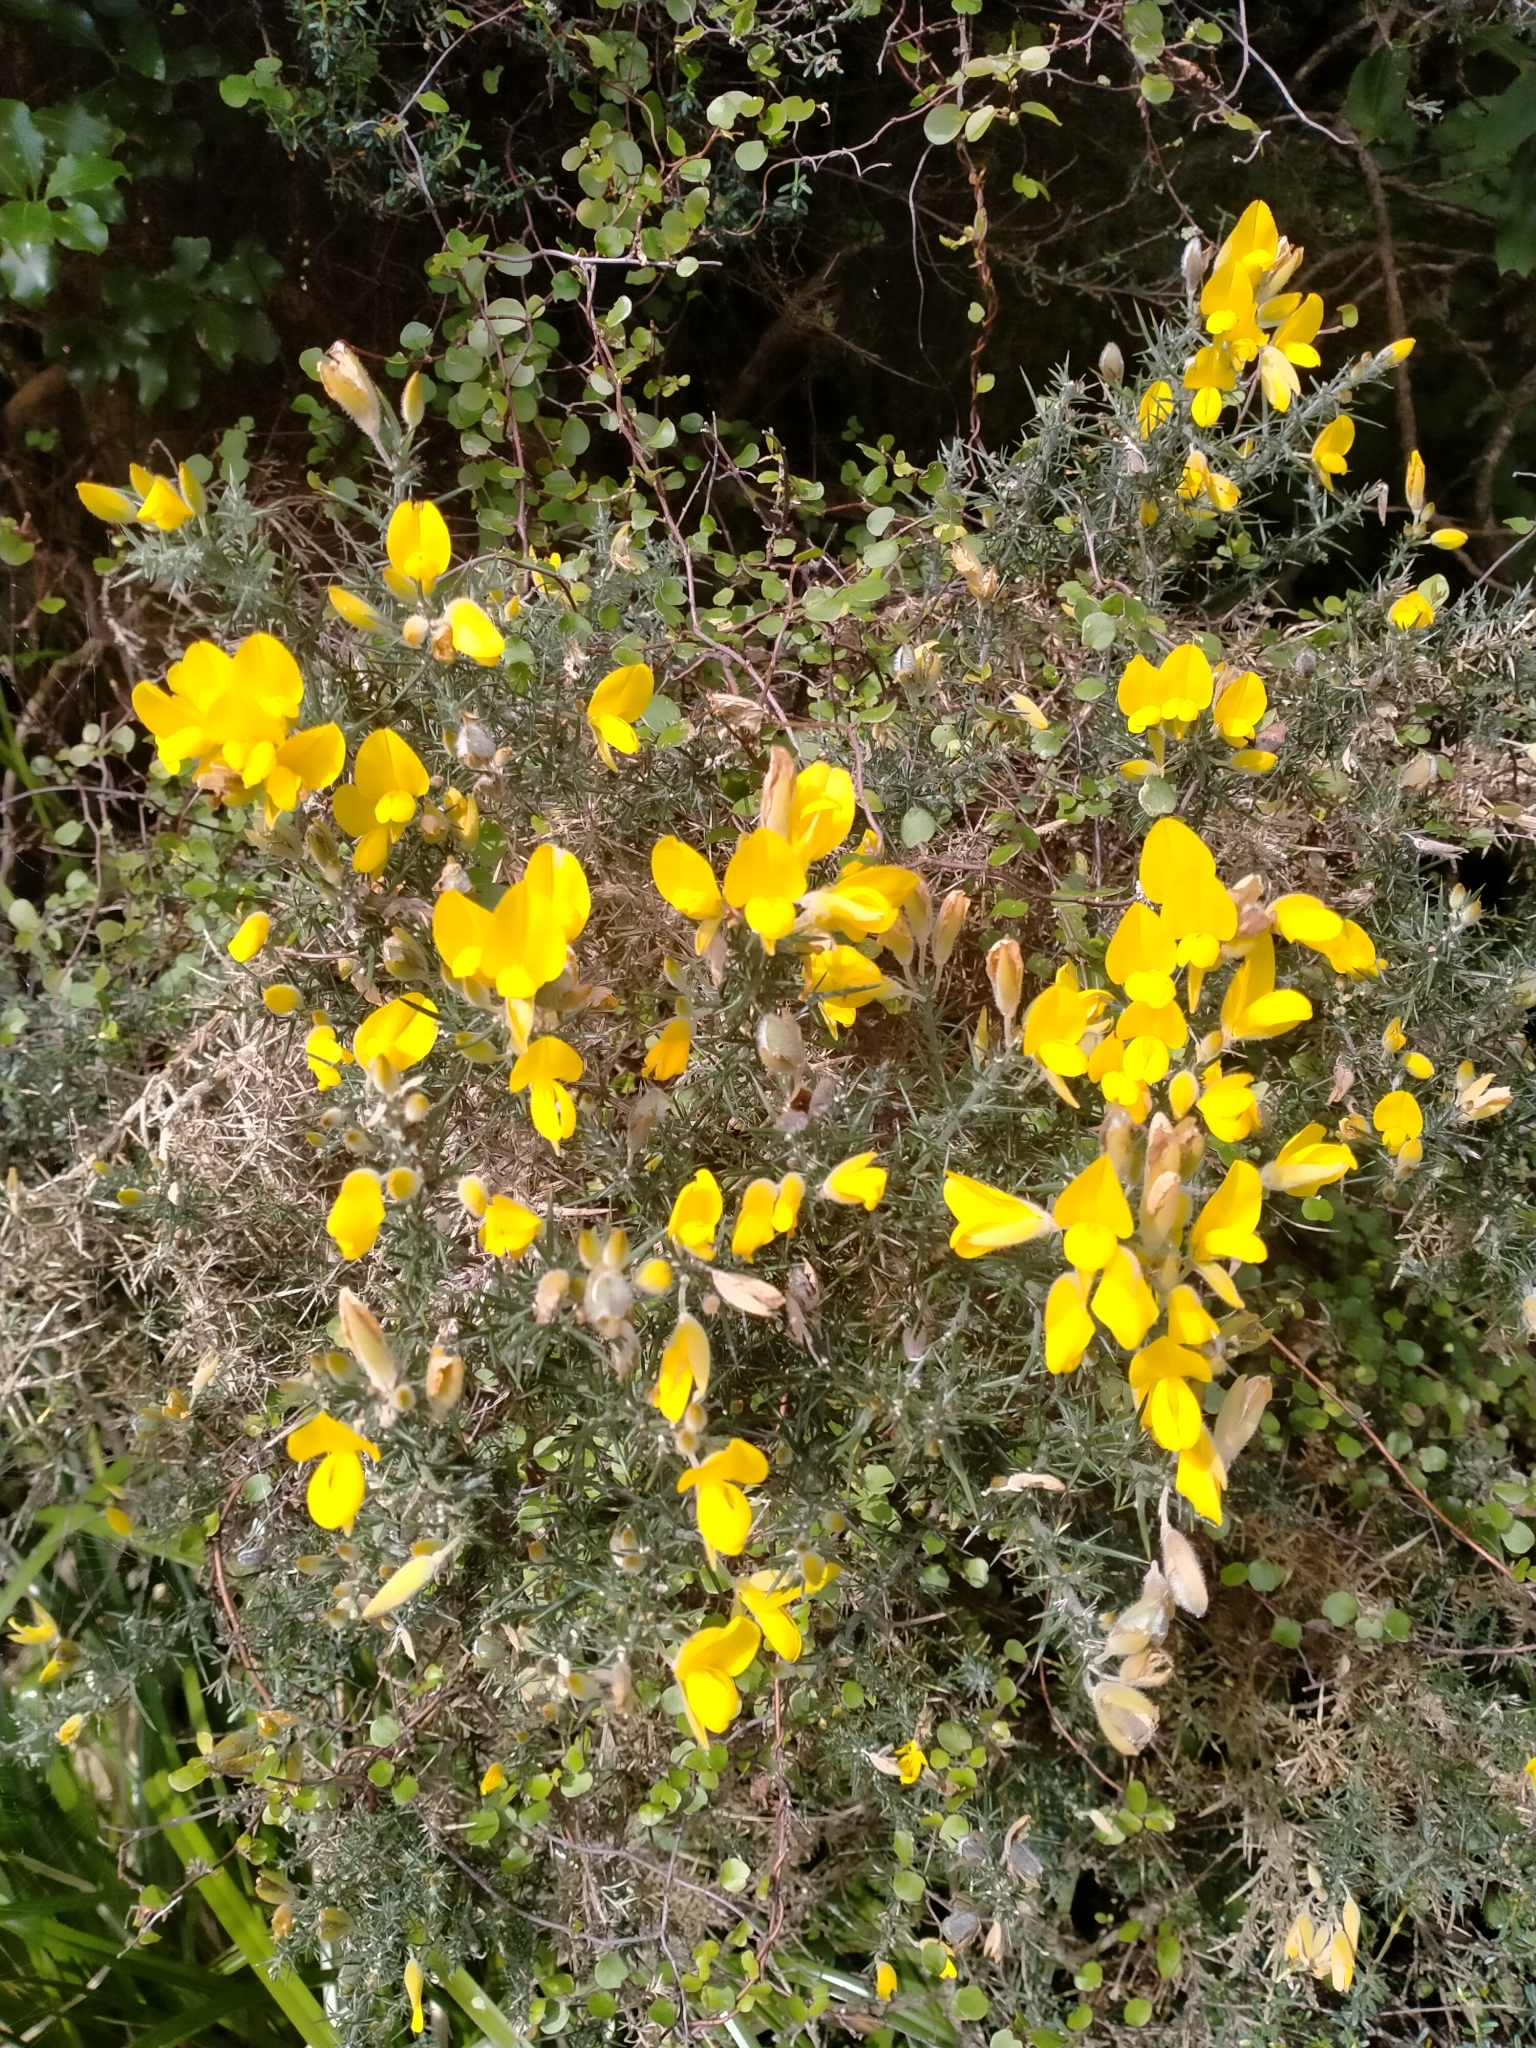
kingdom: Plantae
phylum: Tracheophyta
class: Magnoliopsida
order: Fabales
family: Fabaceae
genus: Ulex
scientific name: Ulex europaeus
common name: Common gorse
